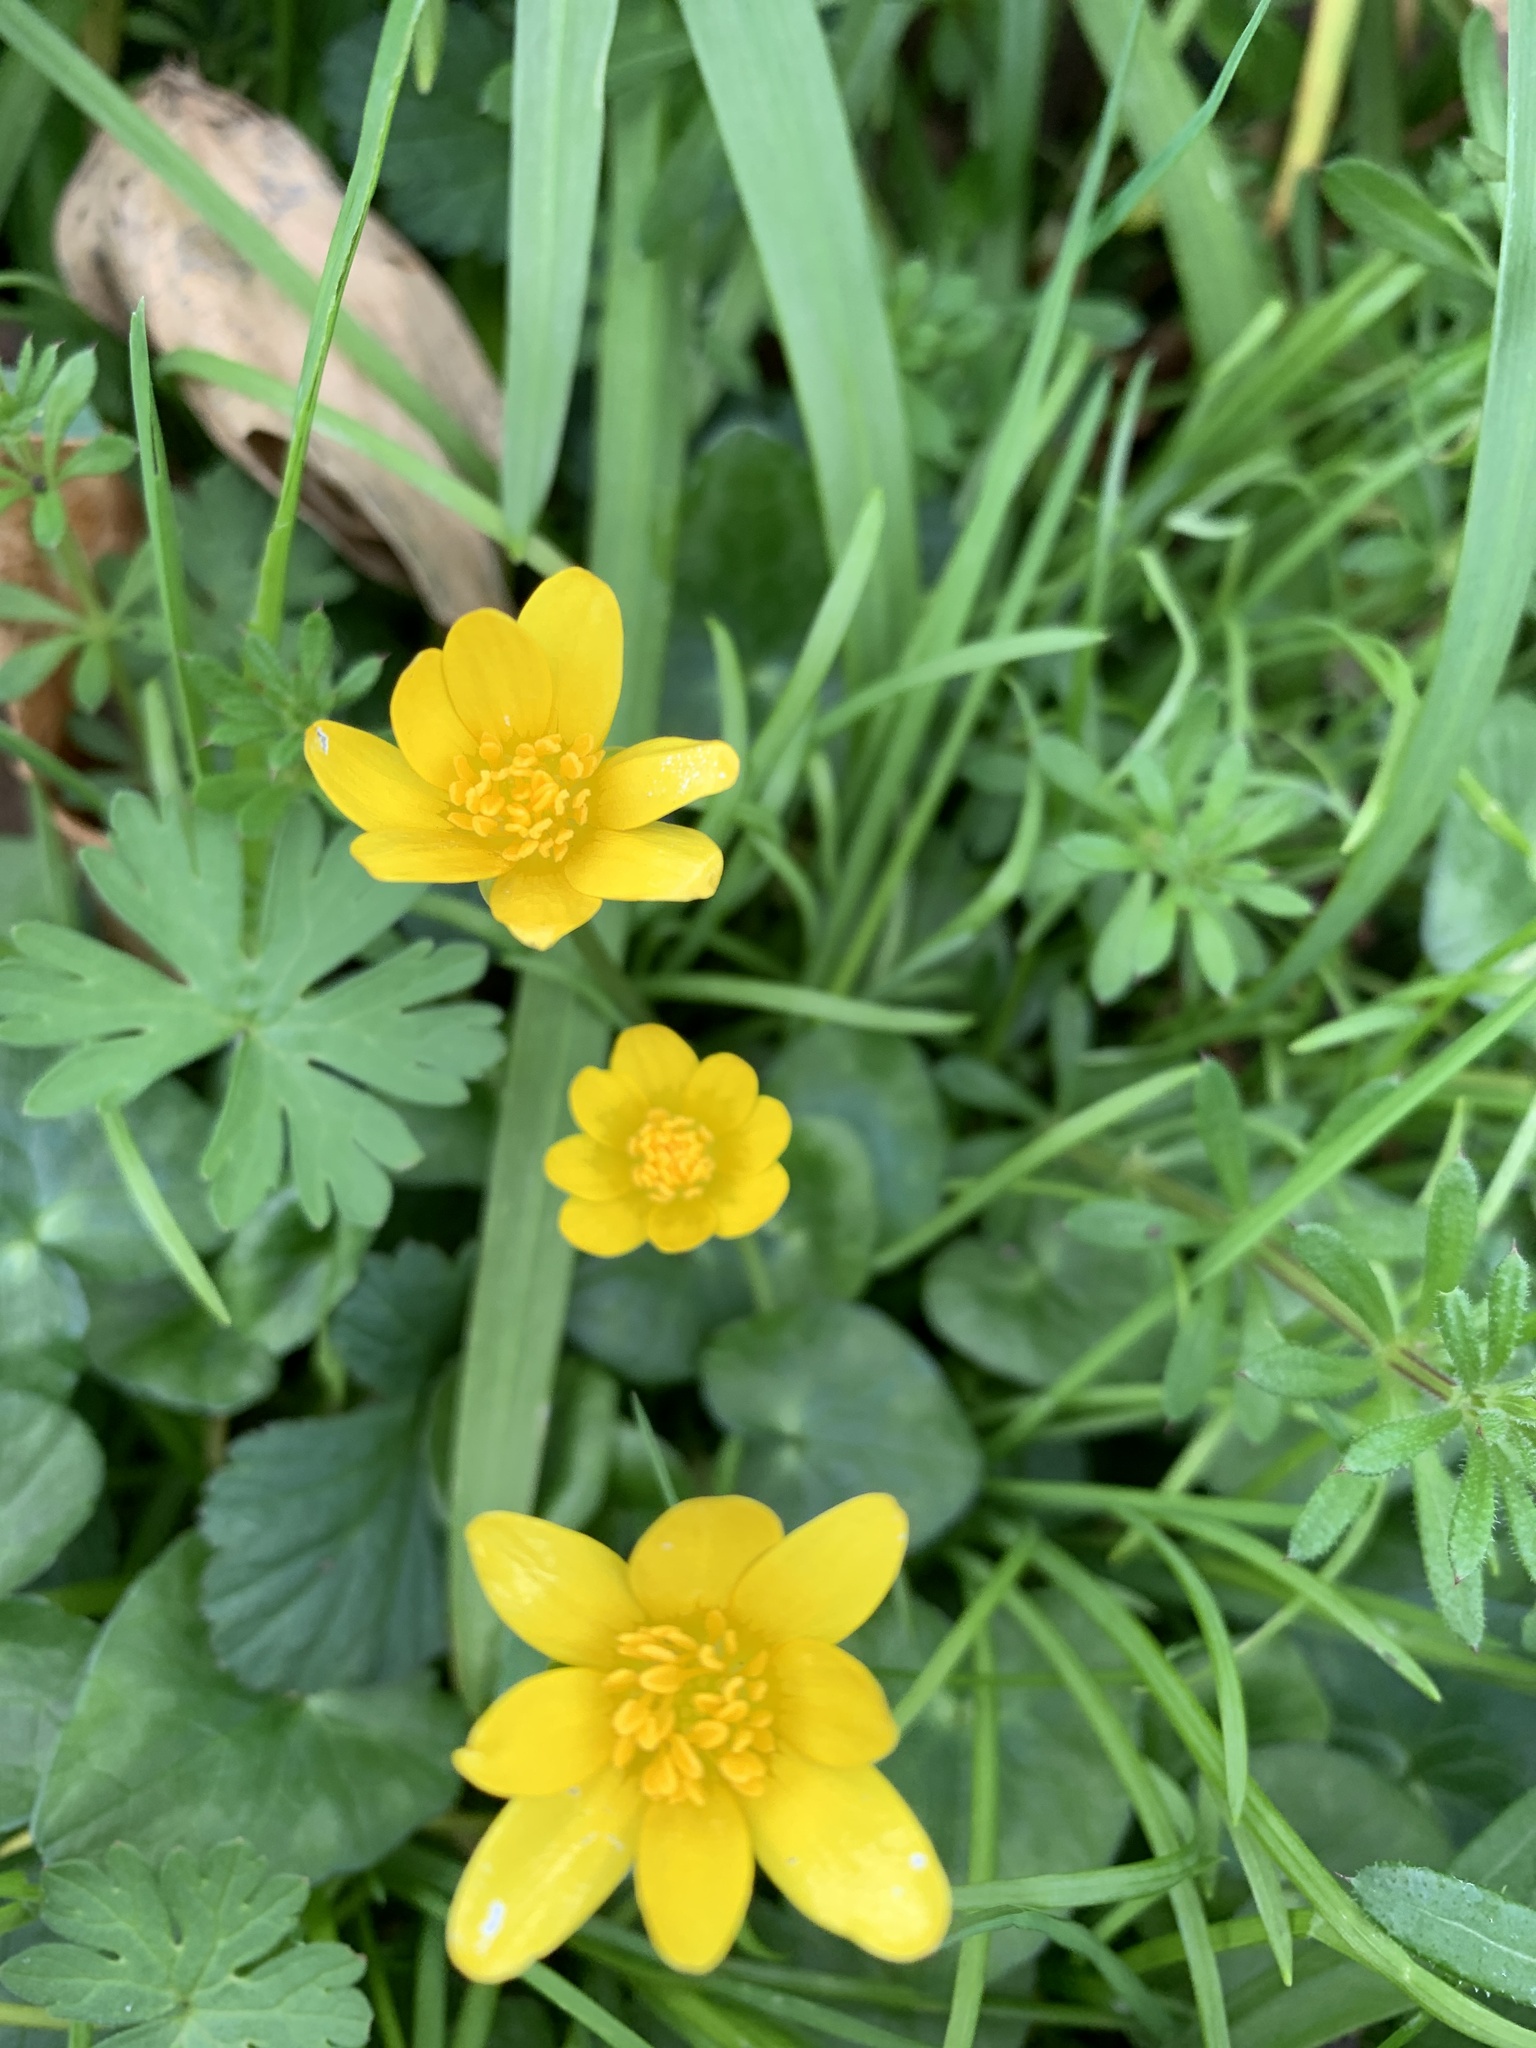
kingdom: Plantae
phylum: Tracheophyta
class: Magnoliopsida
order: Ranunculales
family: Ranunculaceae
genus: Ficaria
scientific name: Ficaria verna
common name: Lesser celandine
